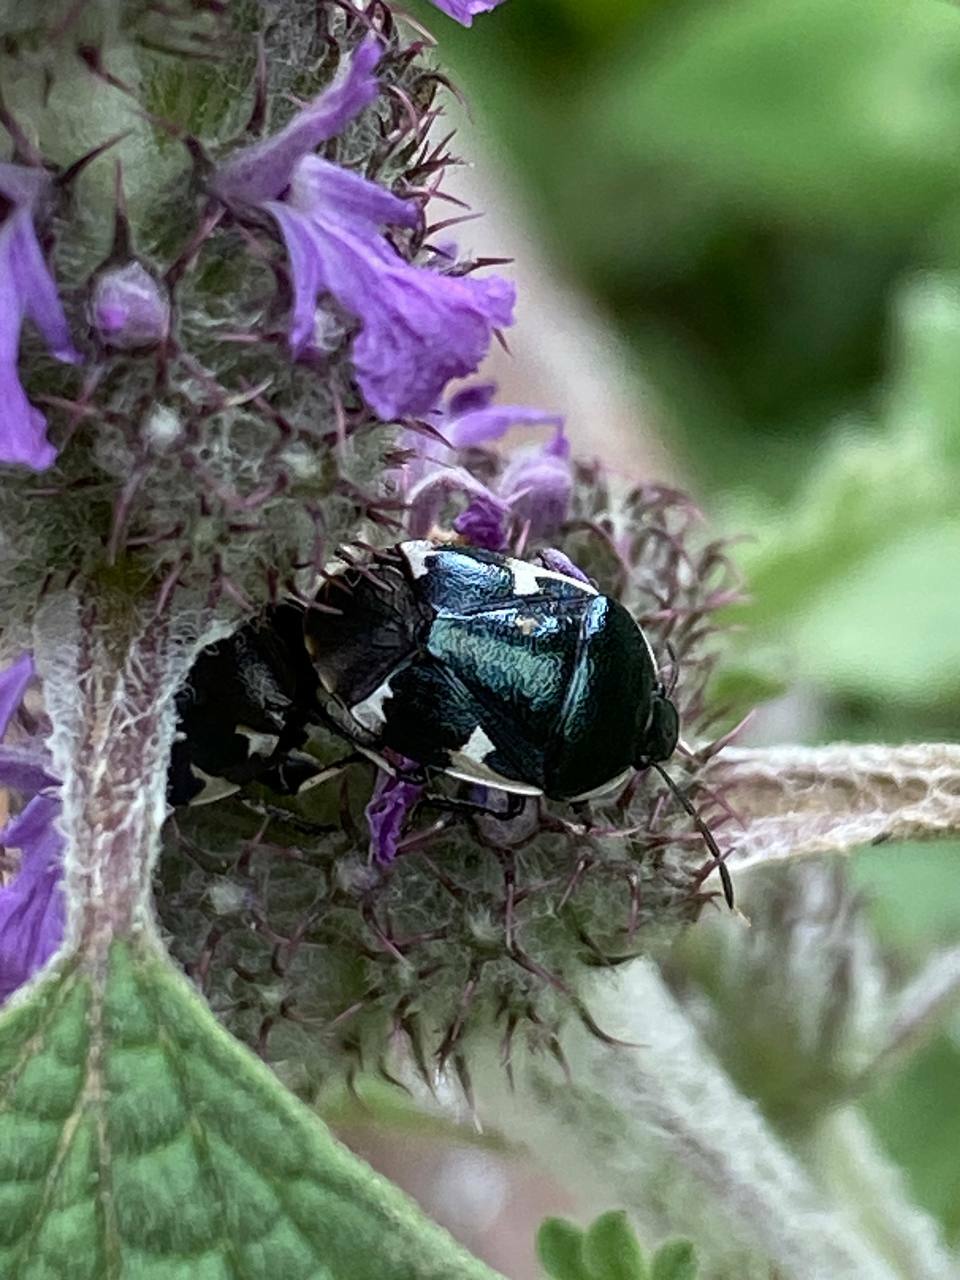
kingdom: Animalia
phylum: Arthropoda
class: Insecta
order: Hemiptera
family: Cydnidae
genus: Tritomegas
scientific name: Tritomegas sexmaculatus
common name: Rambur's pied shieldbug
